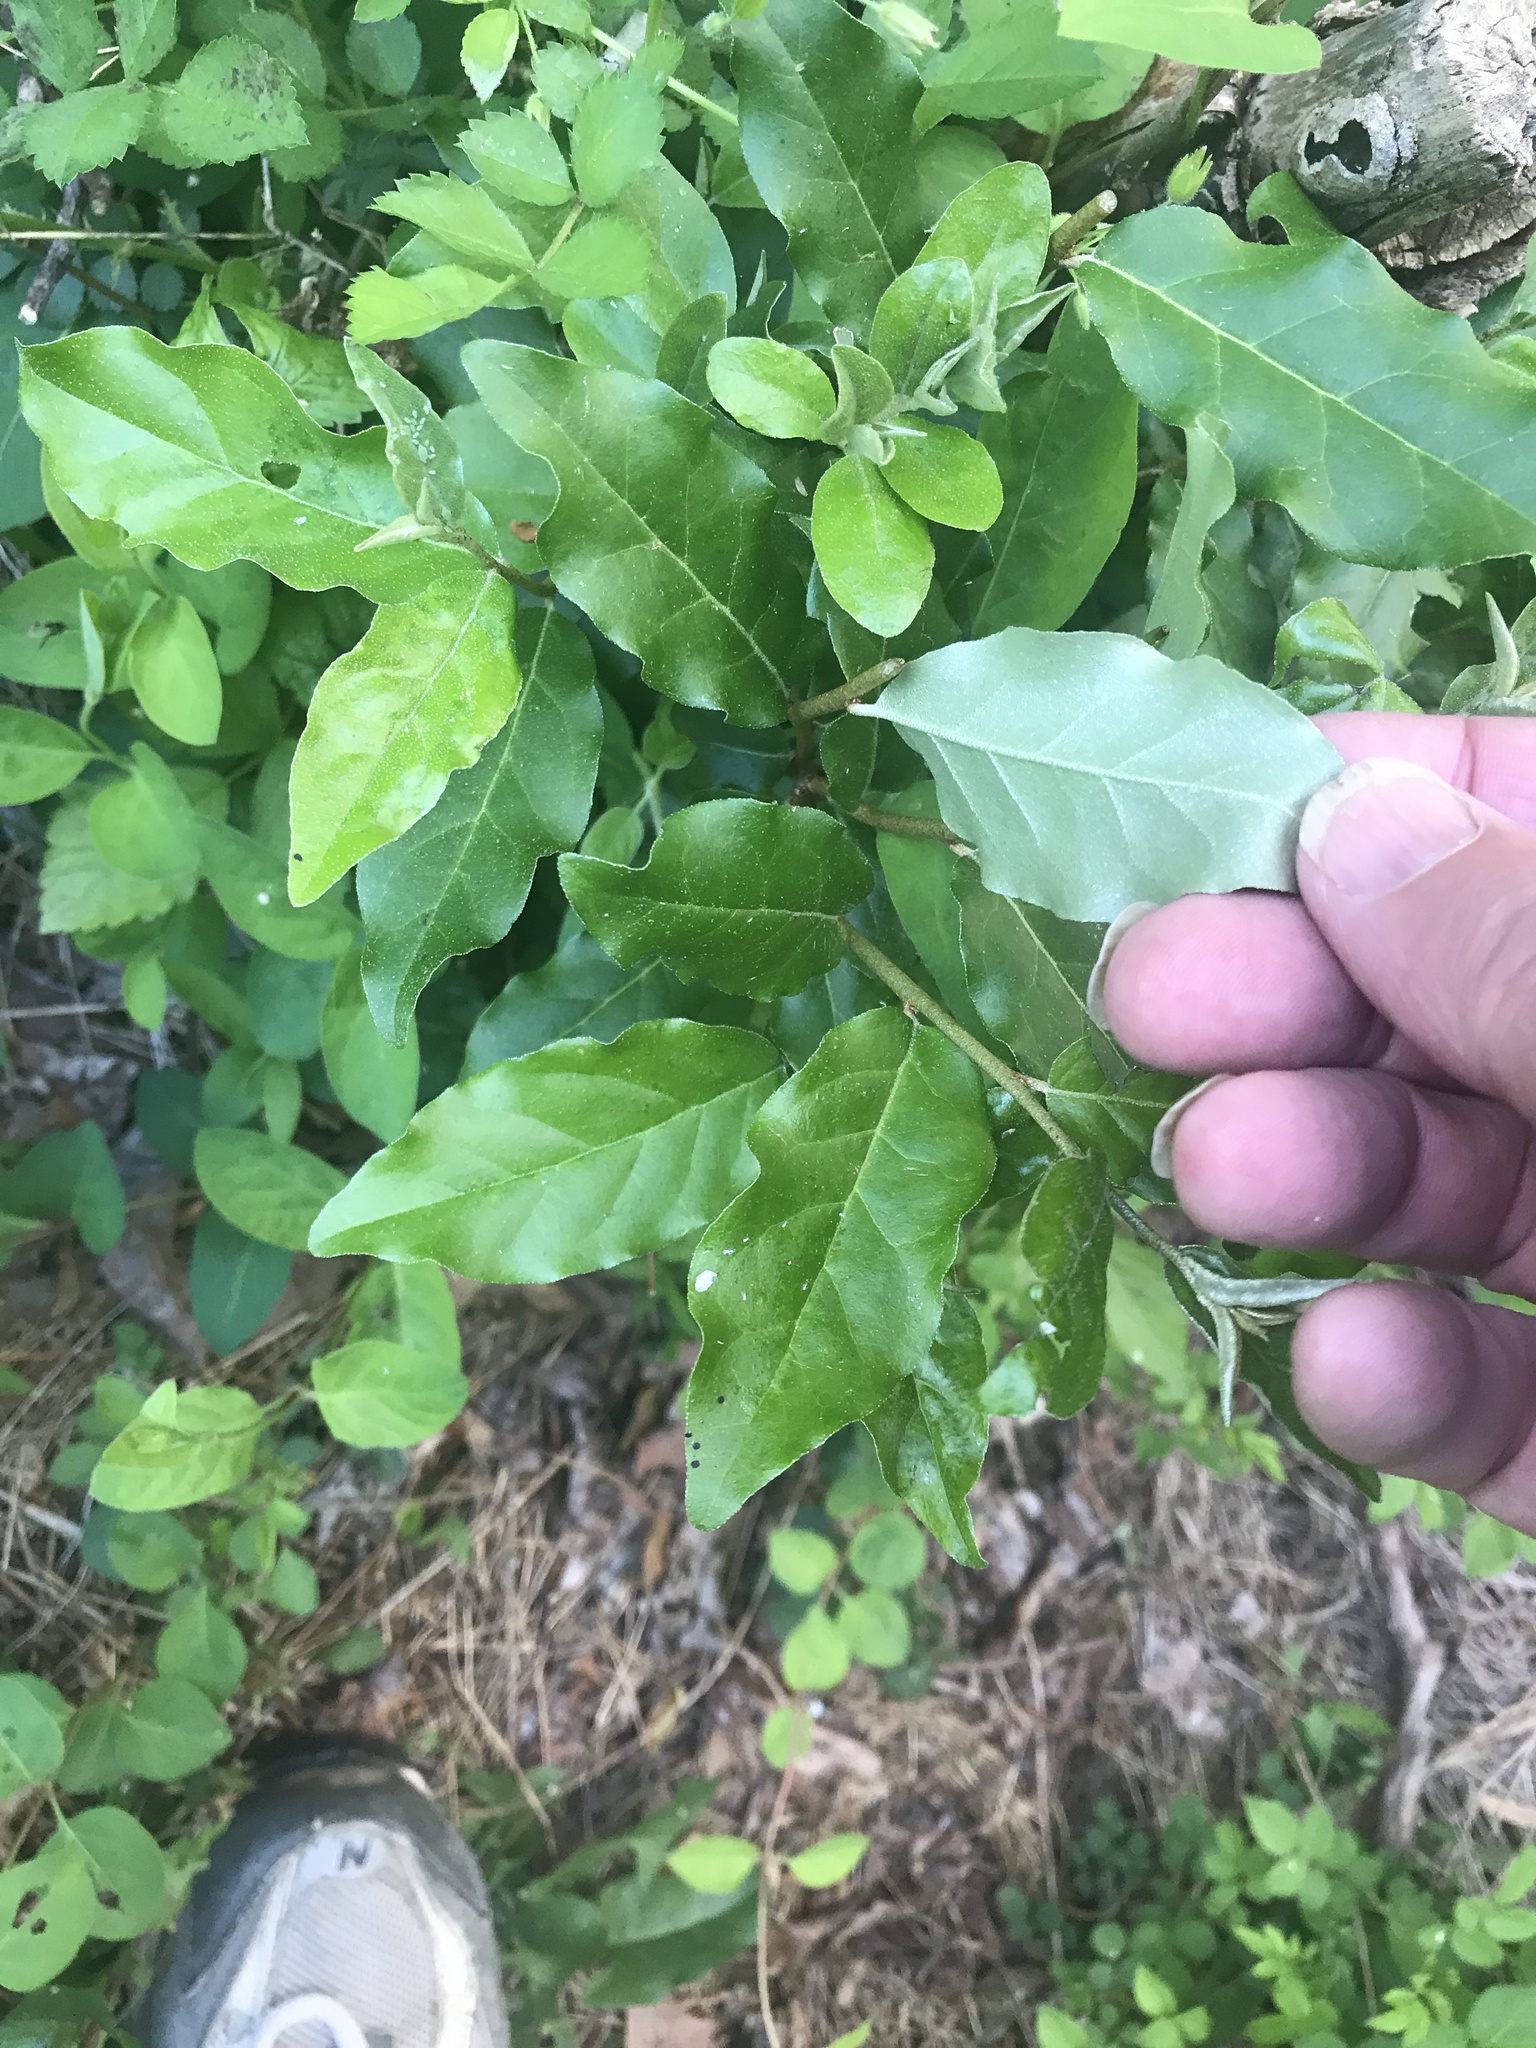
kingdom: Plantae
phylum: Tracheophyta
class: Magnoliopsida
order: Rosales
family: Elaeagnaceae
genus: Elaeagnus
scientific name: Elaeagnus umbellata
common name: Autumn olive
